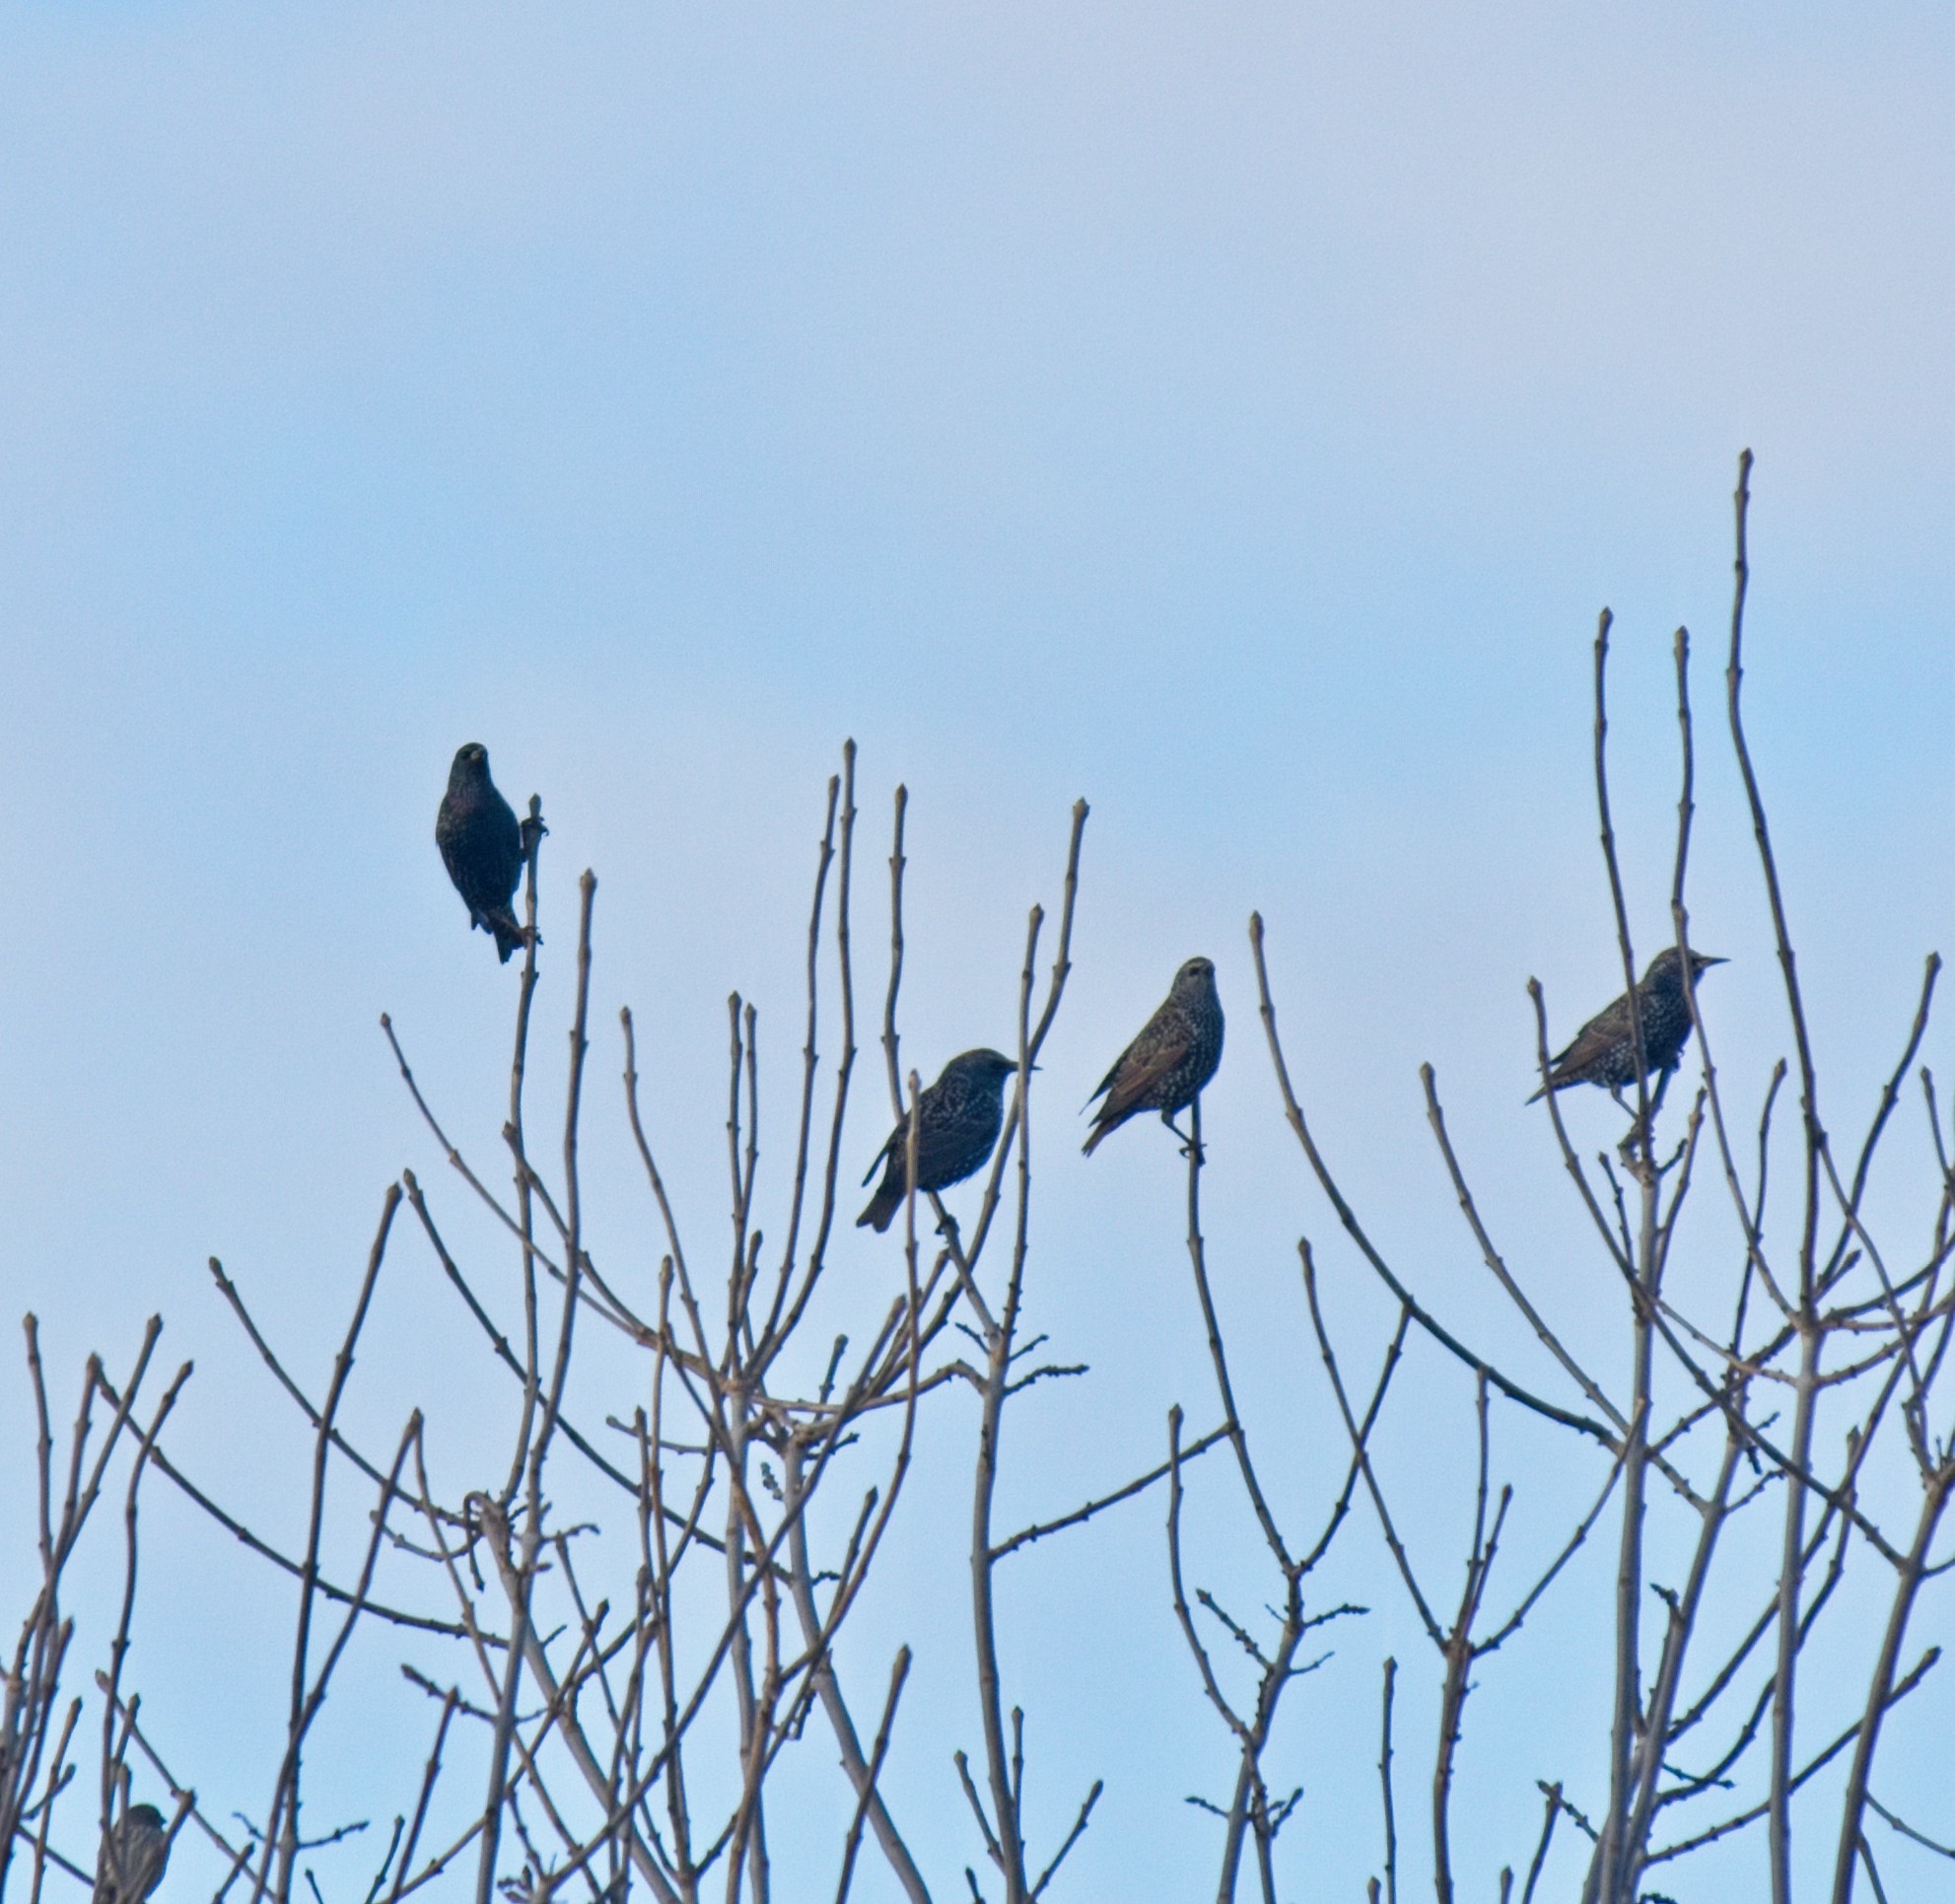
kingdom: Animalia
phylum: Chordata
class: Aves
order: Passeriformes
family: Sturnidae
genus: Sturnus
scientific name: Sturnus vulgaris
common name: Common starling
